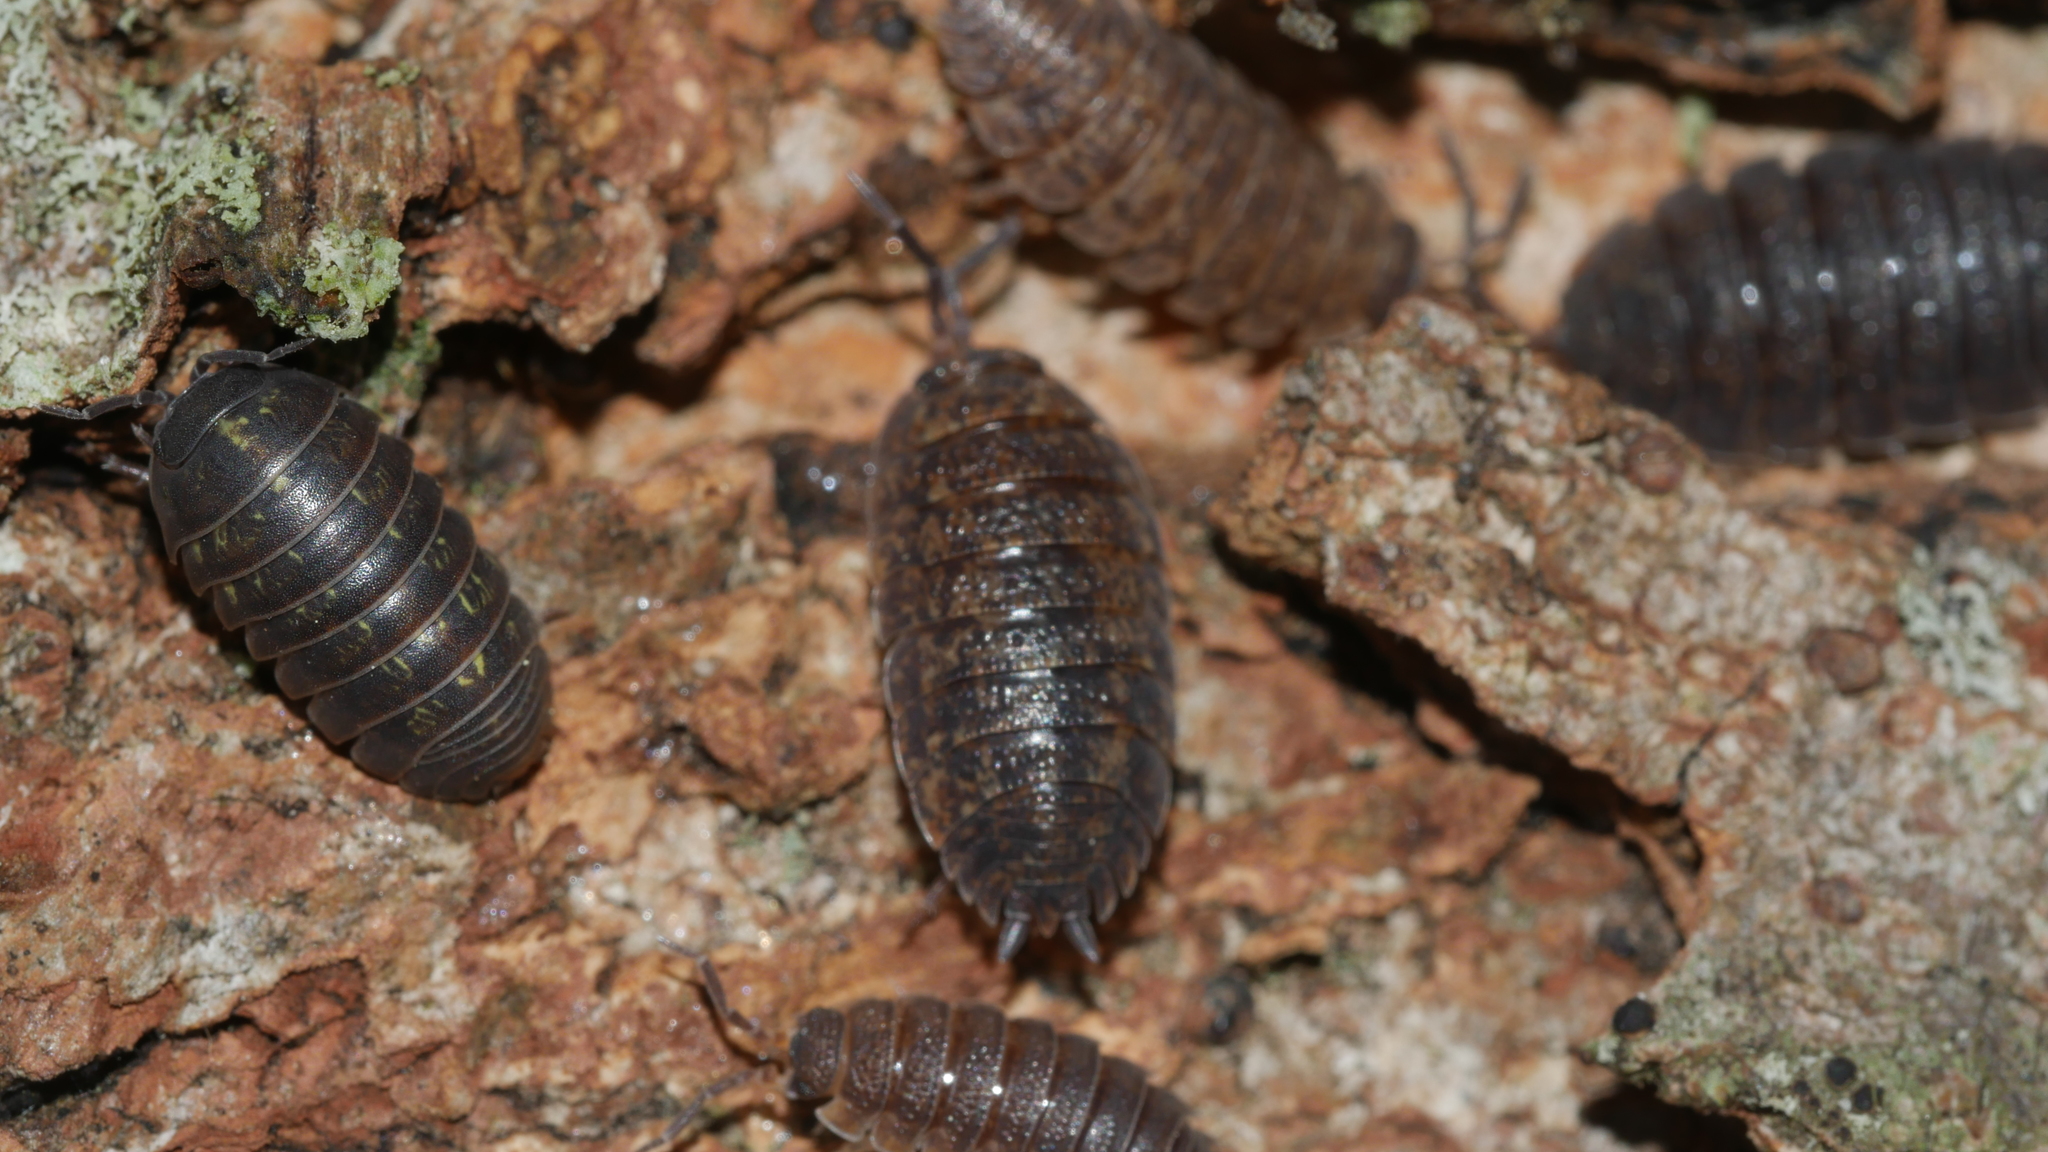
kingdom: Animalia
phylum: Arthropoda
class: Malacostraca
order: Isopoda
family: Armadillidiidae
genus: Armadillidium
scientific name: Armadillidium vulgare
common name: Common pill woodlouse
